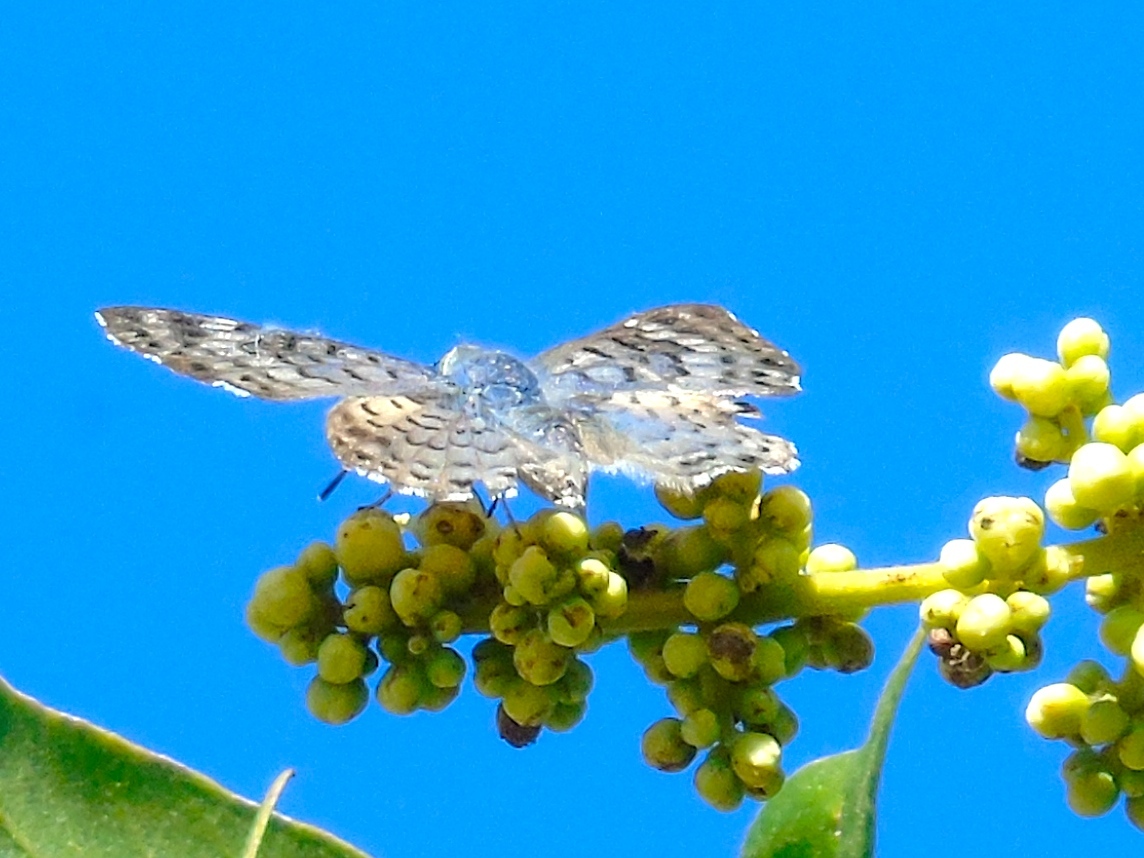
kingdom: Animalia
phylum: Arthropoda
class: Insecta
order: Lepidoptera
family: Riodinidae
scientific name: Riodinidae
